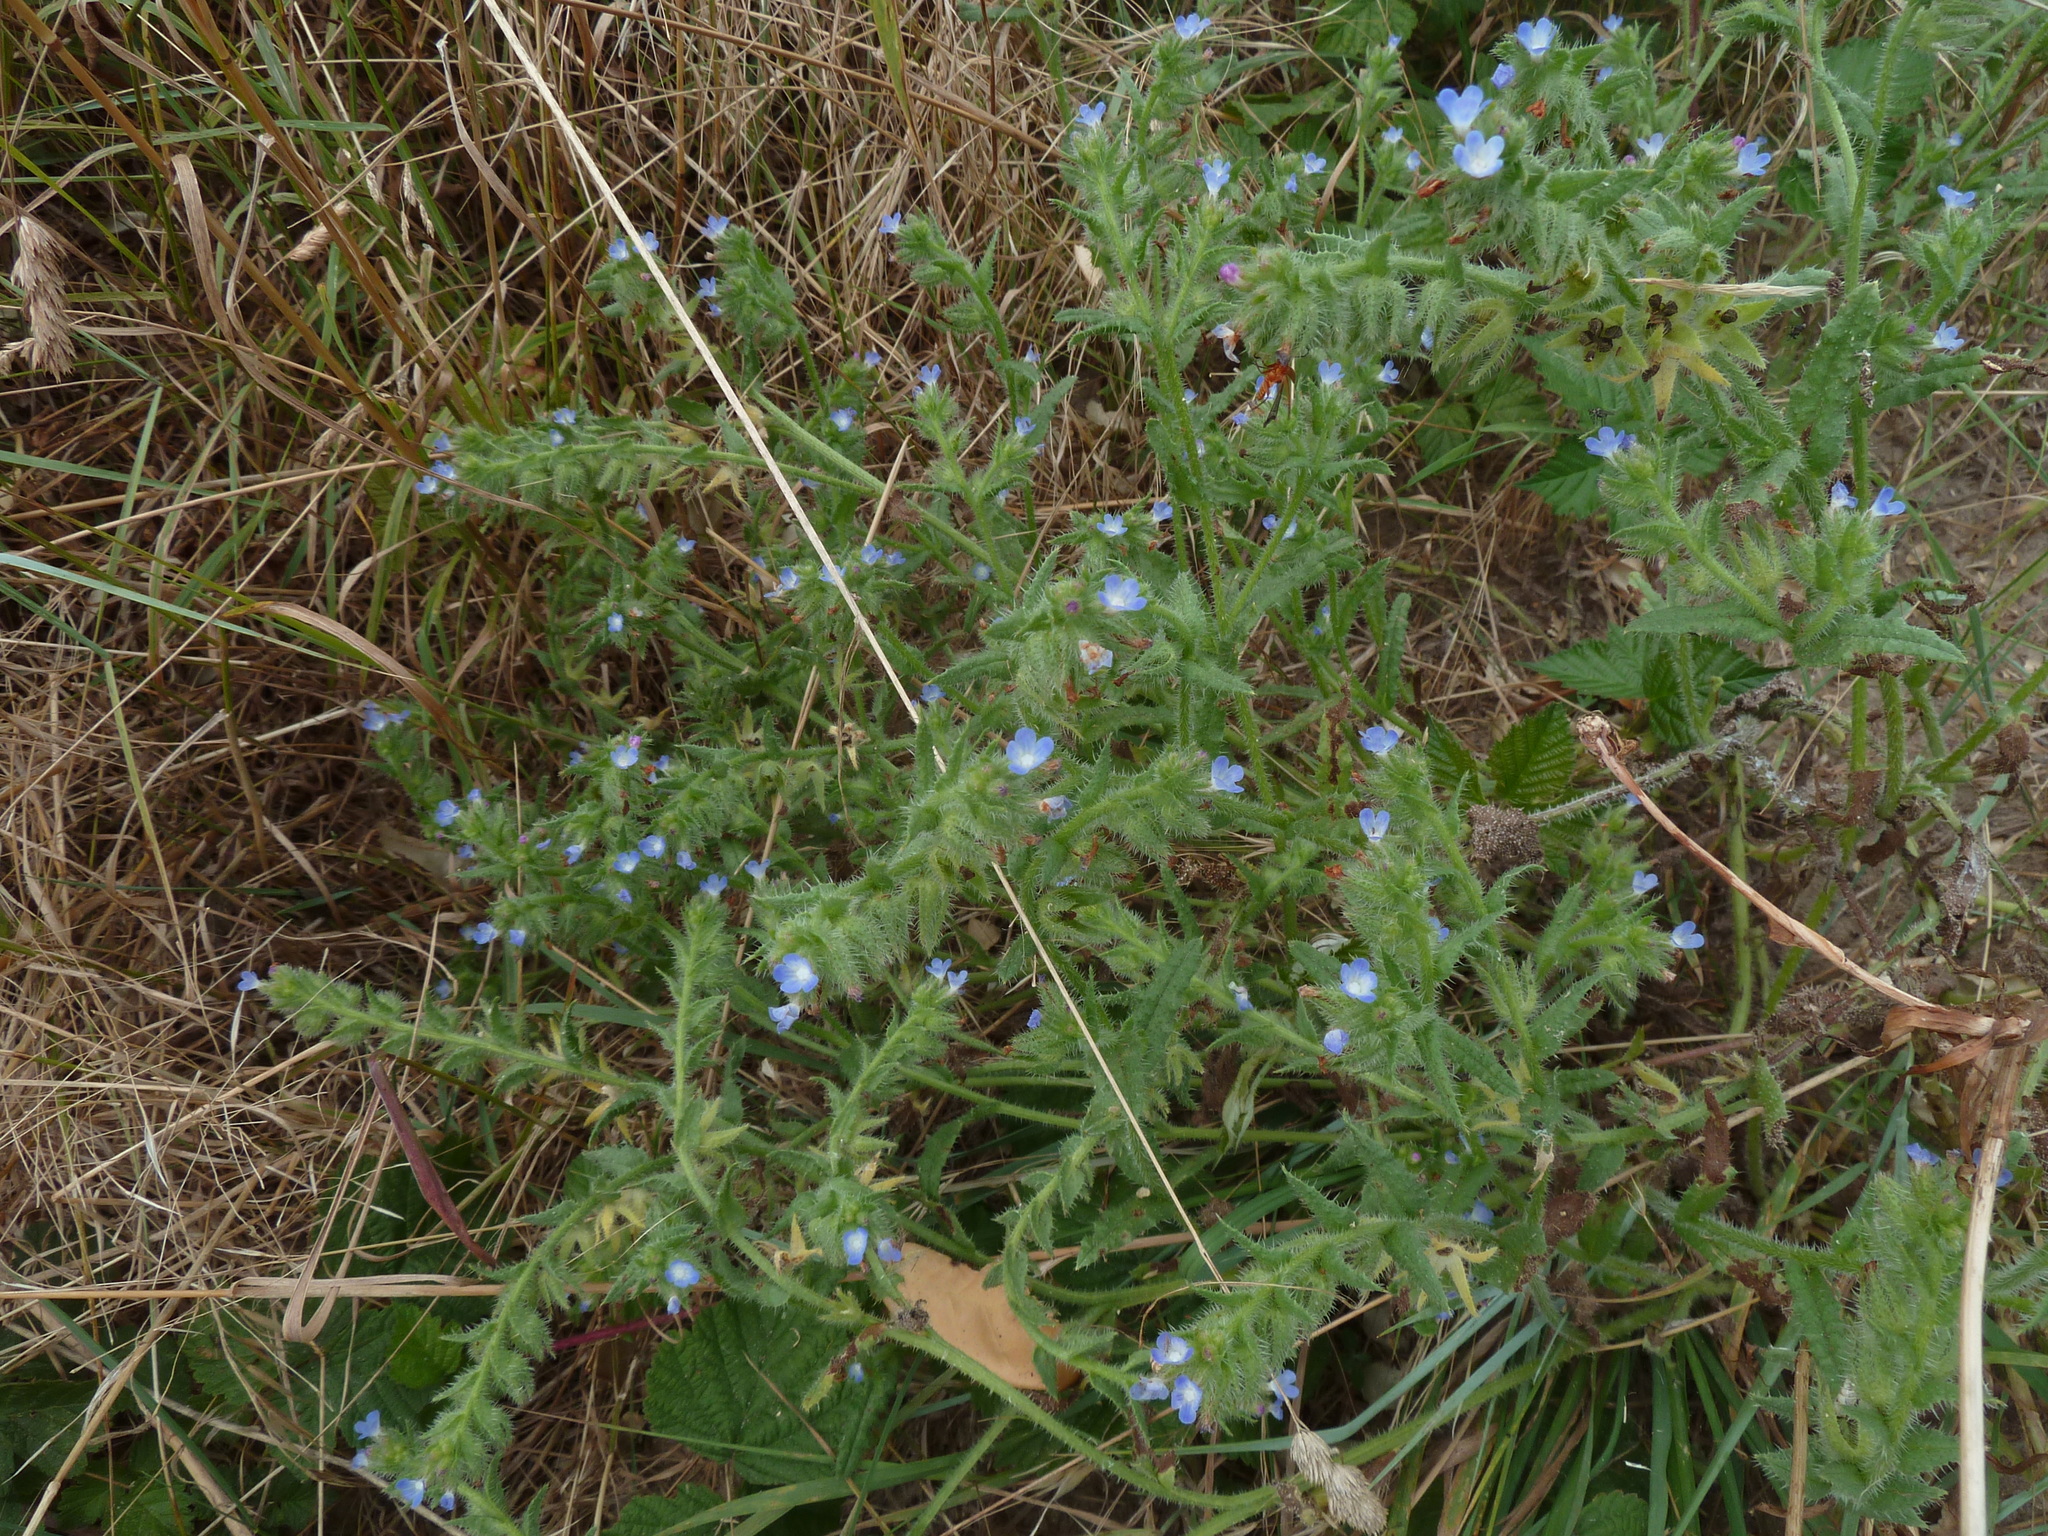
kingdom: Plantae
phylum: Tracheophyta
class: Magnoliopsida
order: Boraginales
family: Boraginaceae
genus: Lycopsis
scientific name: Lycopsis arvensis
